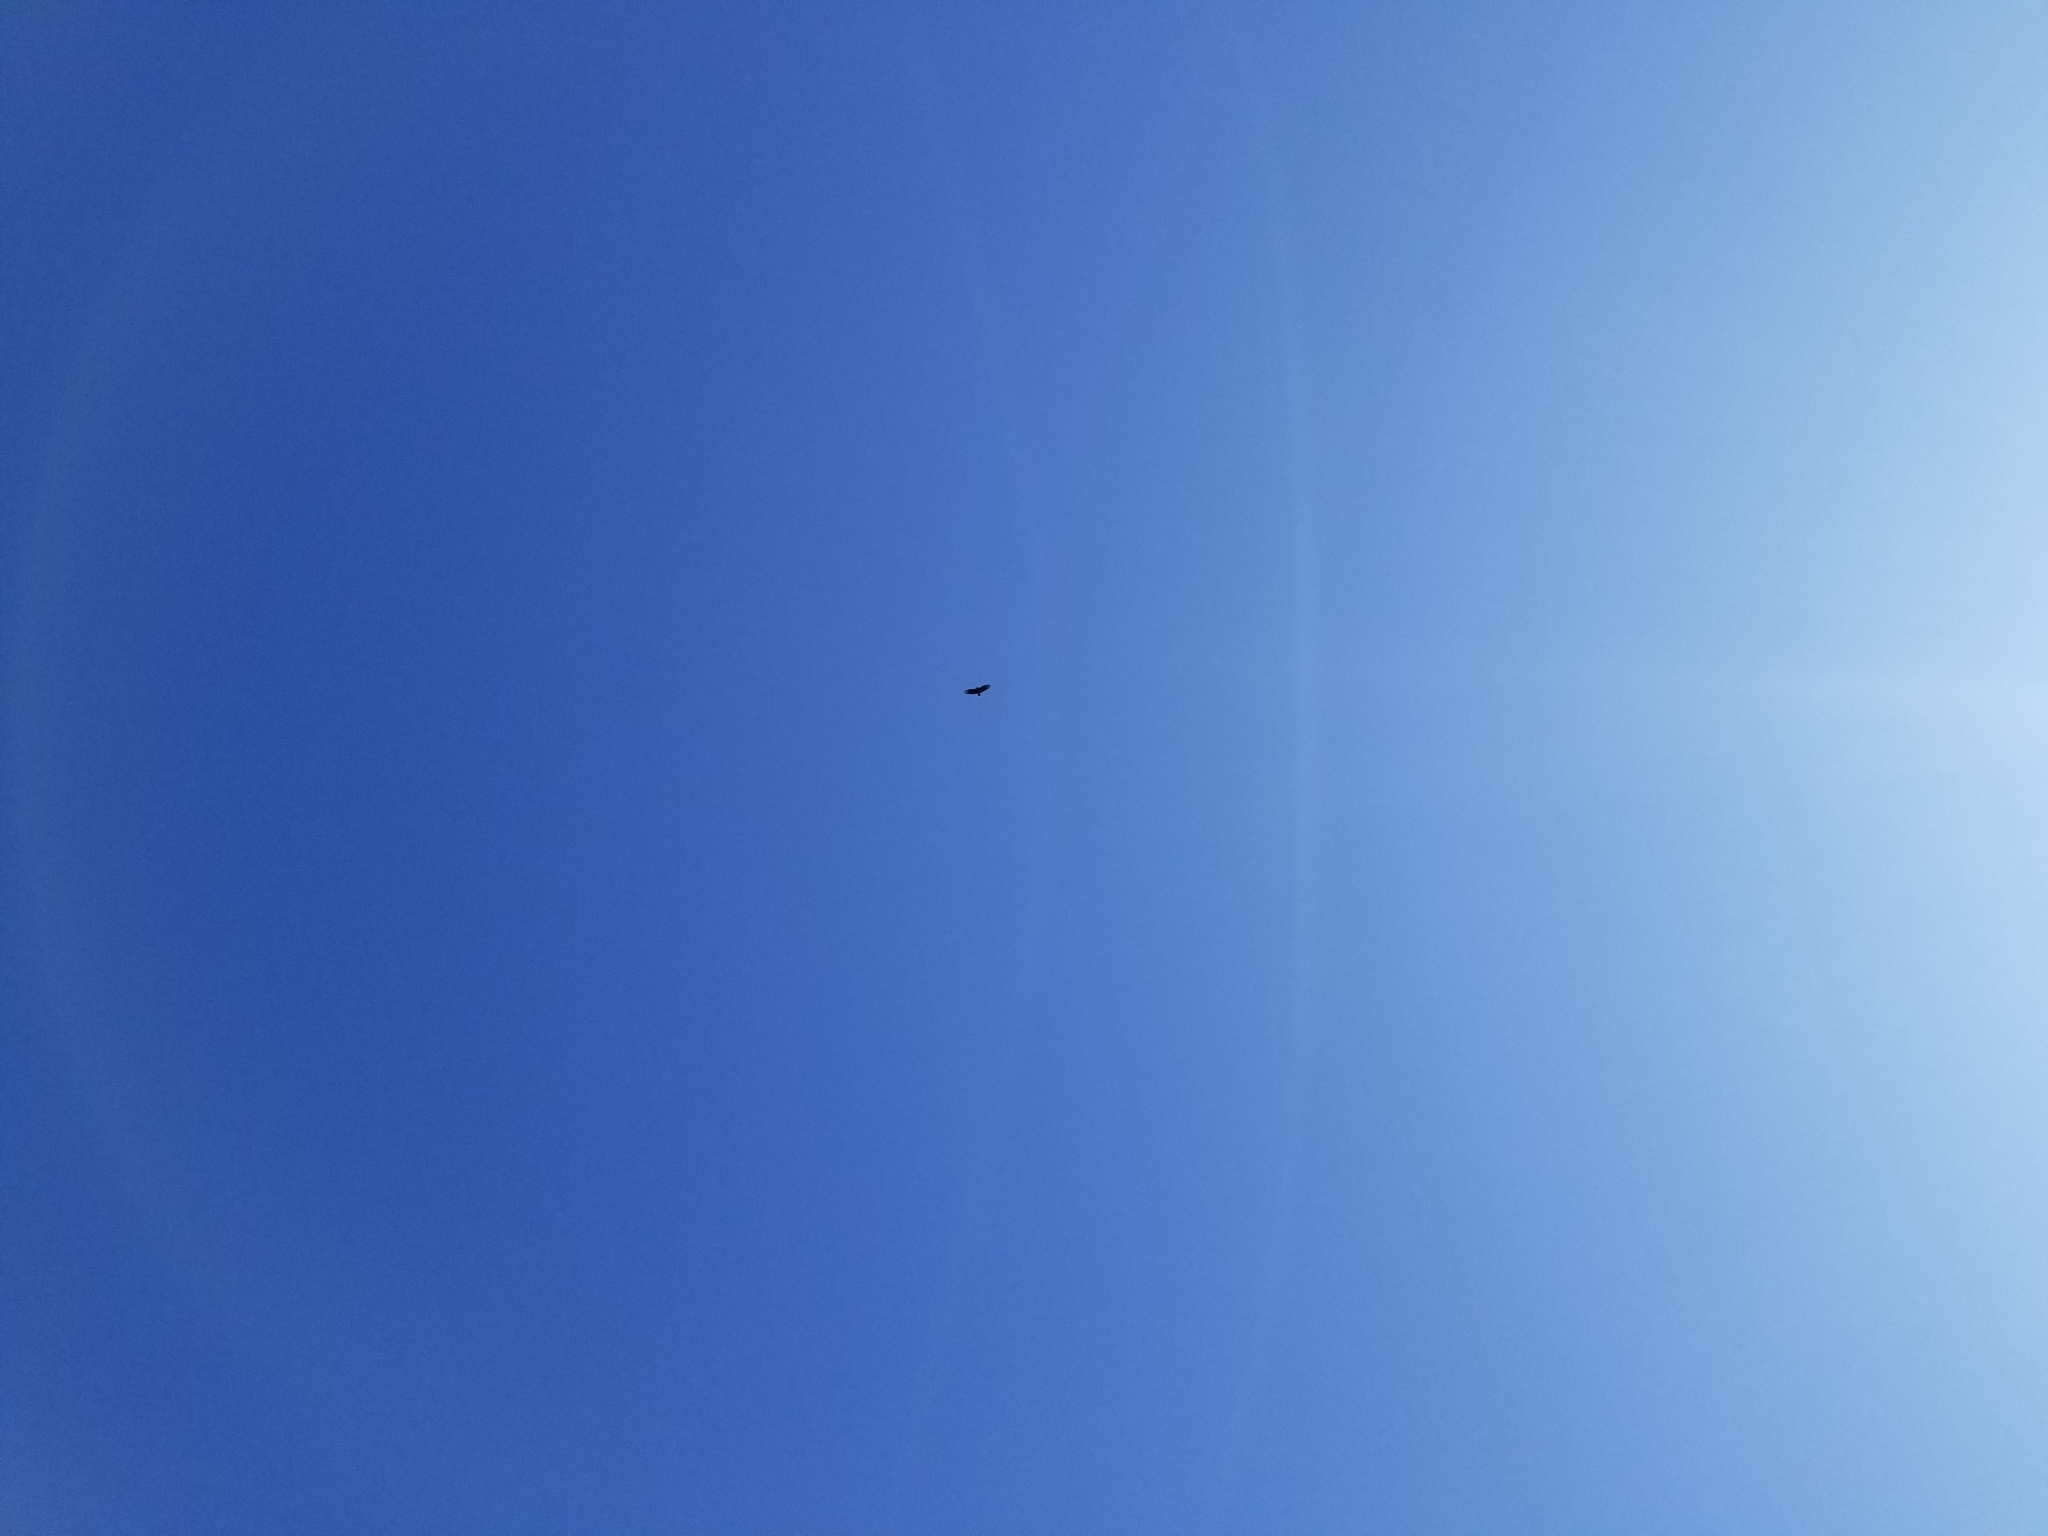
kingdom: Animalia
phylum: Chordata
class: Aves
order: Accipitriformes
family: Cathartidae
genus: Coragyps
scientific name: Coragyps atratus
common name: Black vulture
